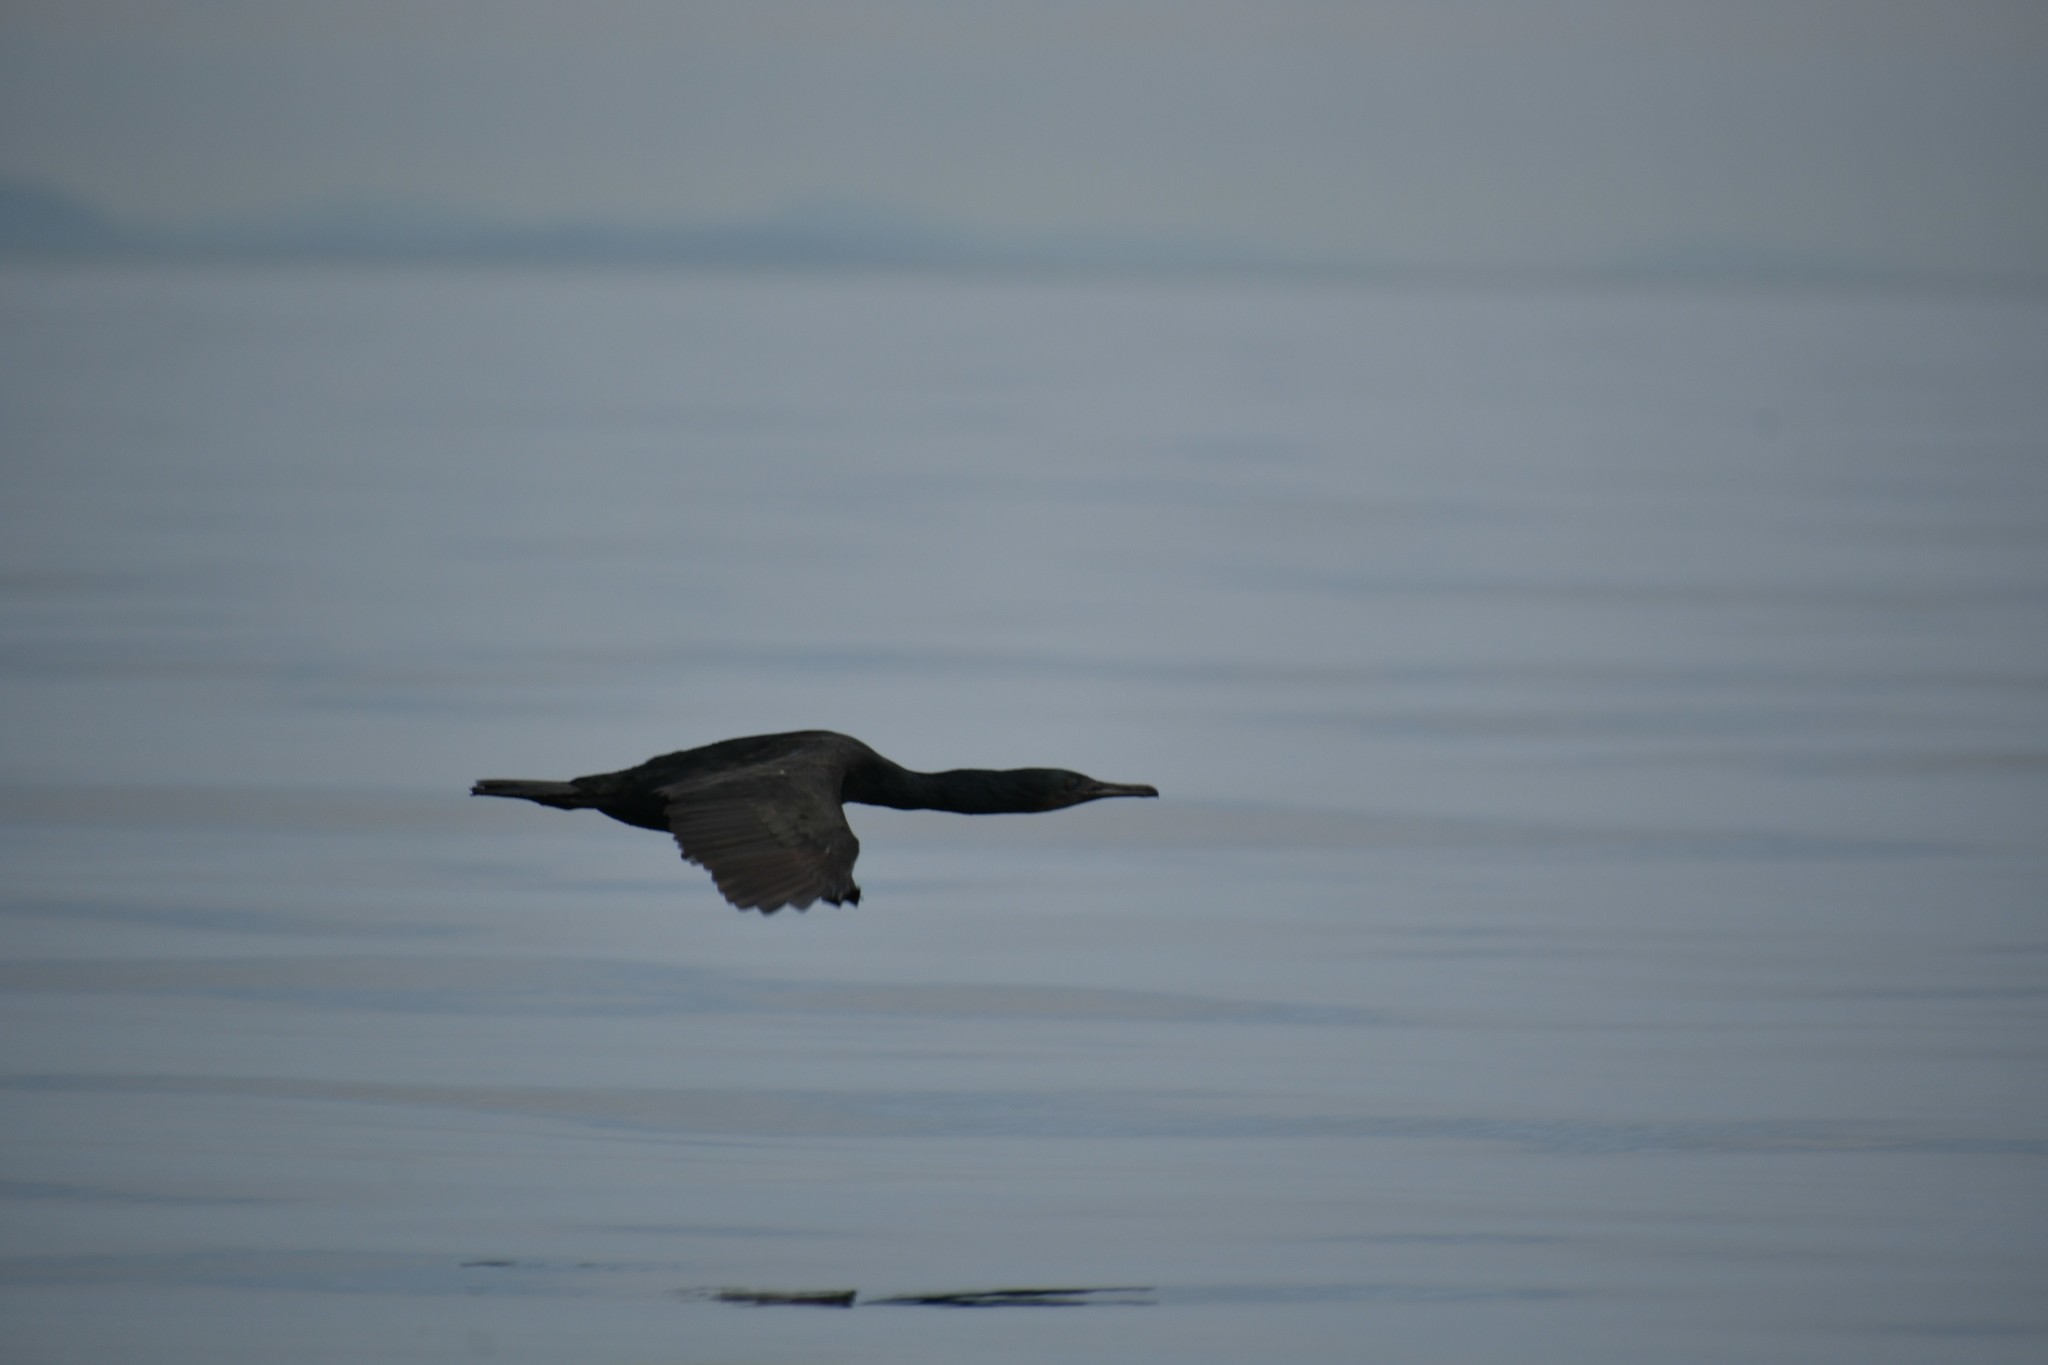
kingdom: Animalia
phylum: Chordata
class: Aves
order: Suliformes
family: Phalacrocoracidae
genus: Urile
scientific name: Urile penicillatus
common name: Brandt's cormorant
